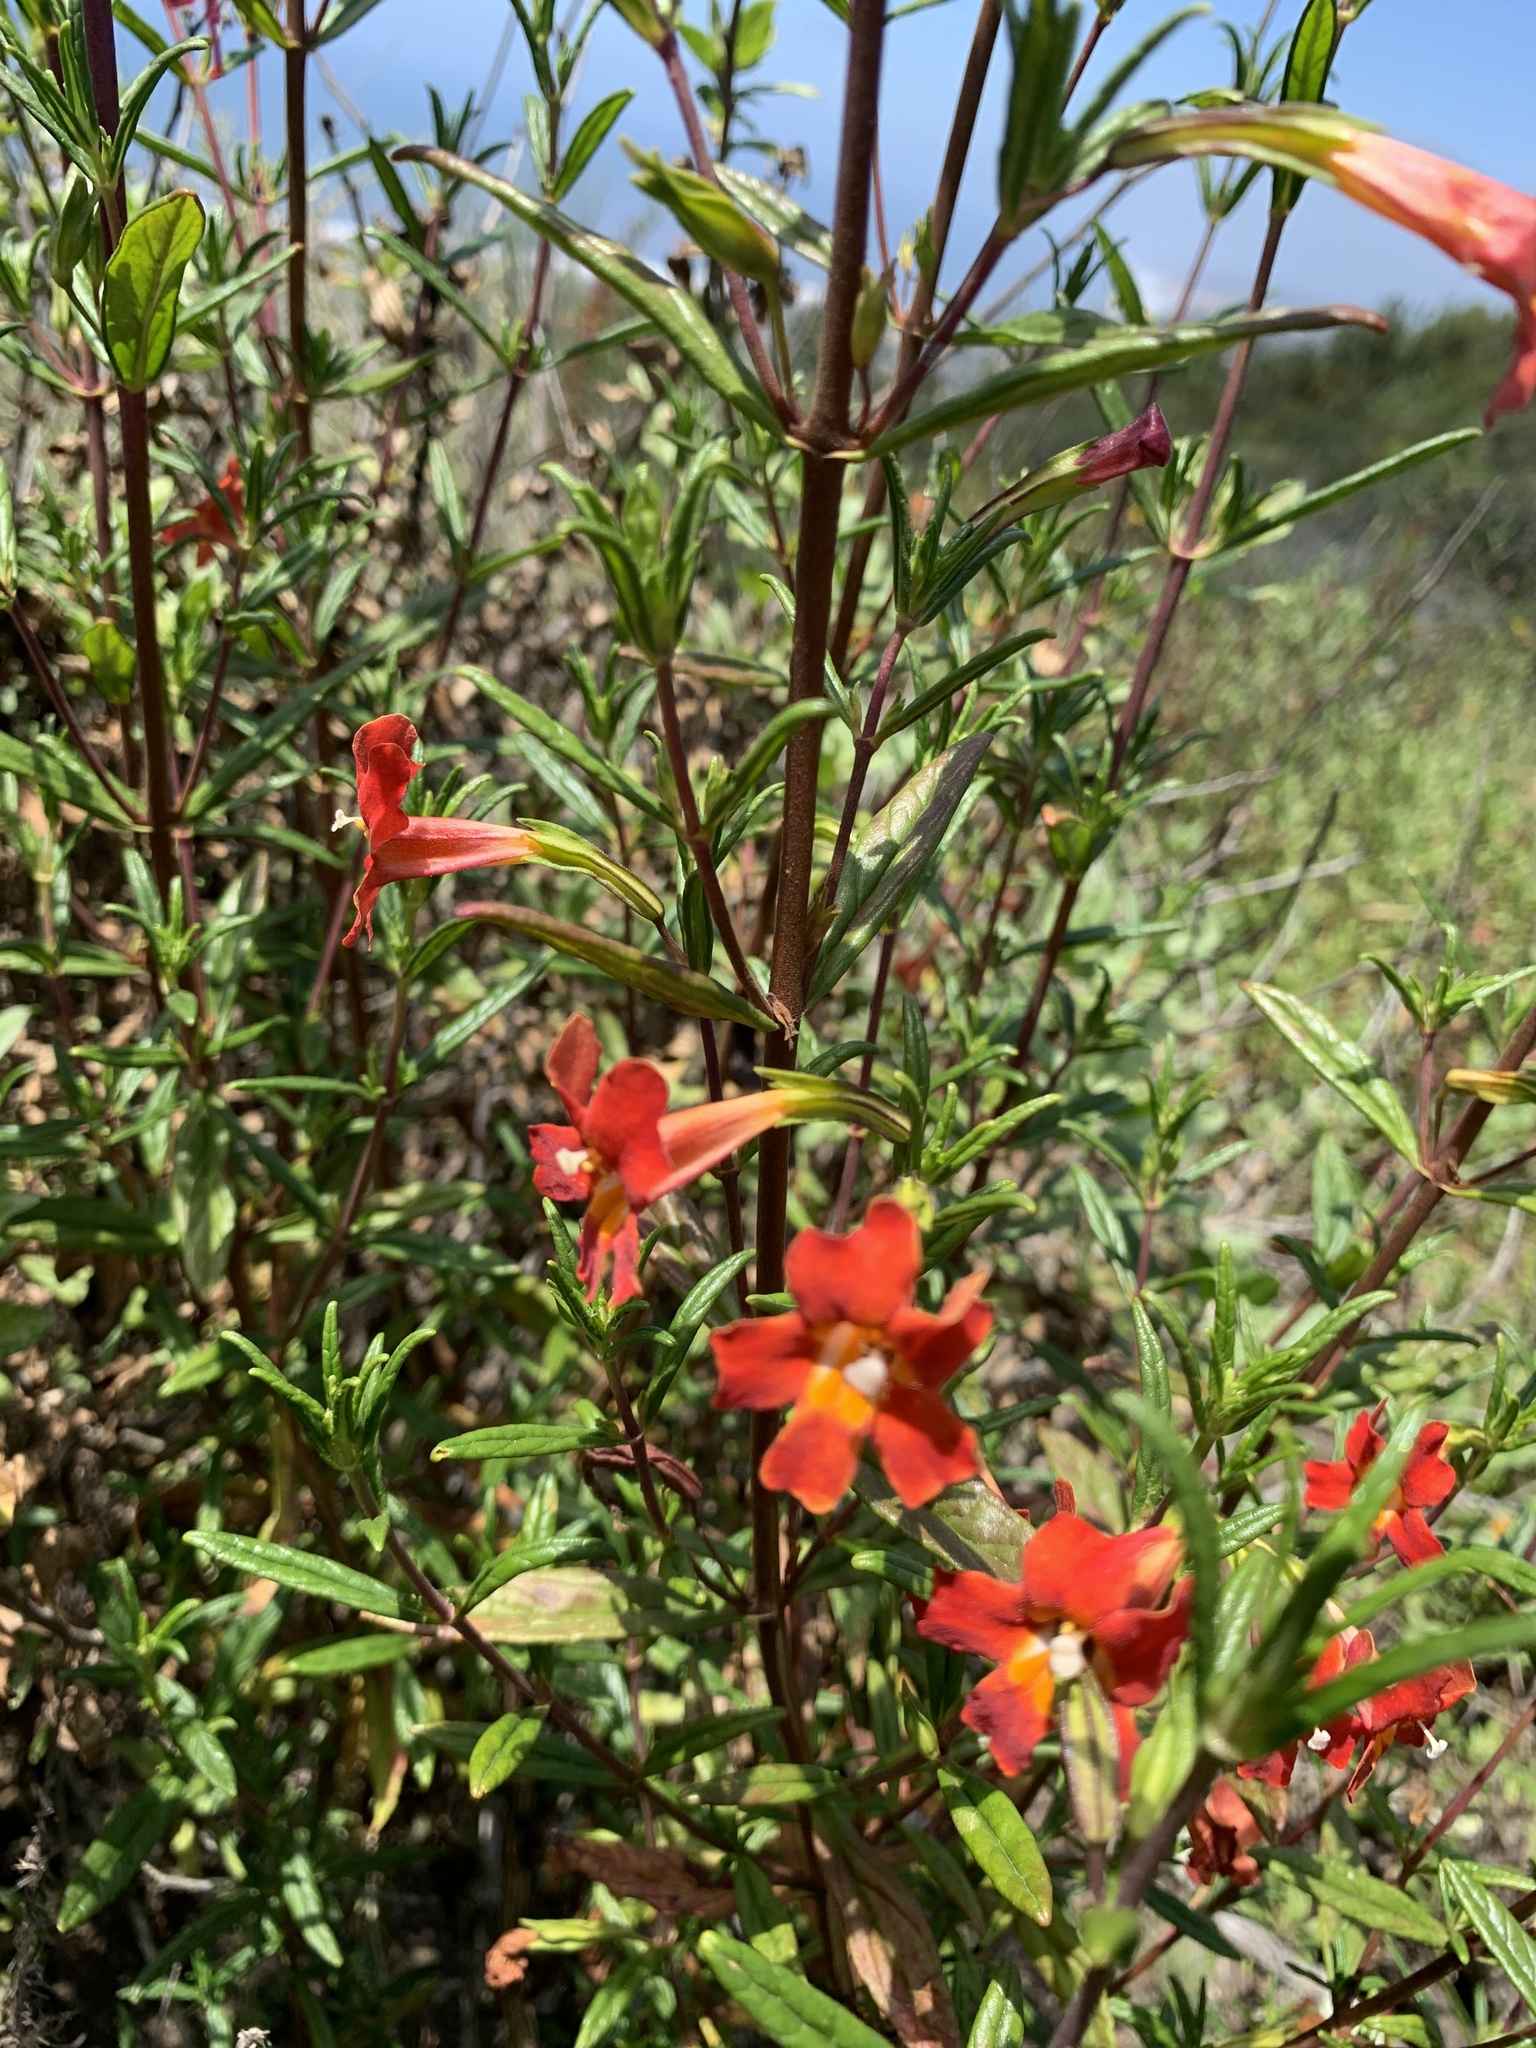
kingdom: Plantae
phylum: Tracheophyta
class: Magnoliopsida
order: Lamiales
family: Phrymaceae
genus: Diplacus
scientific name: Diplacus puniceus
